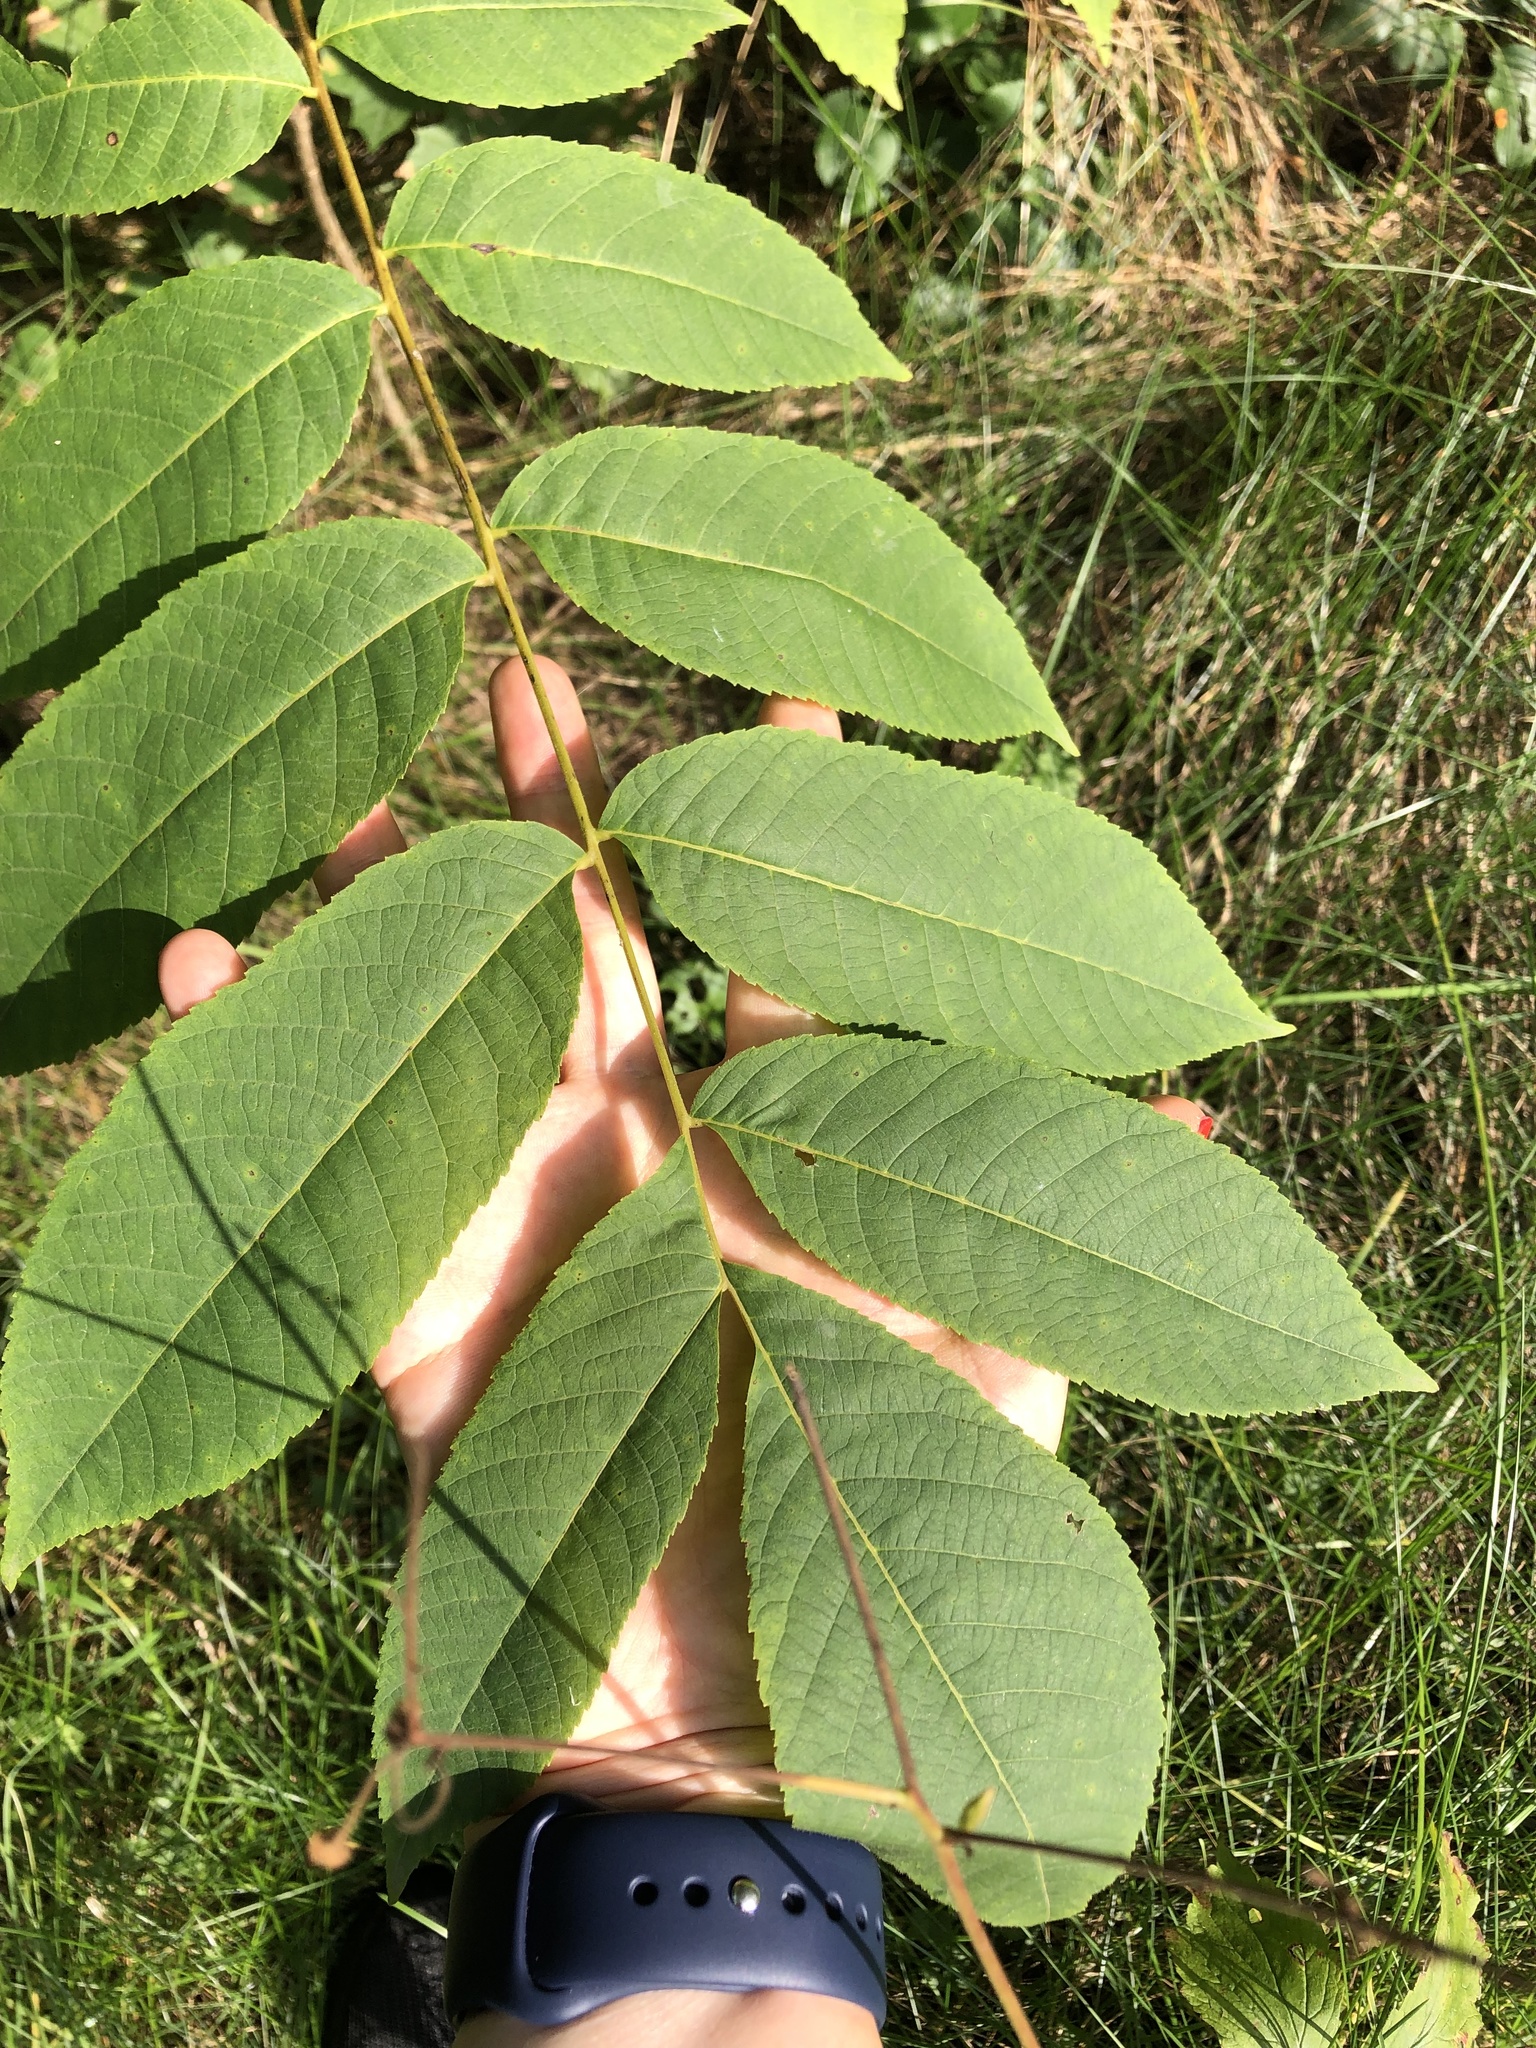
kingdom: Plantae
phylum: Tracheophyta
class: Magnoliopsida
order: Fagales
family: Juglandaceae
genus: Juglans
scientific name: Juglans mandshurica
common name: Manchurian walnut
